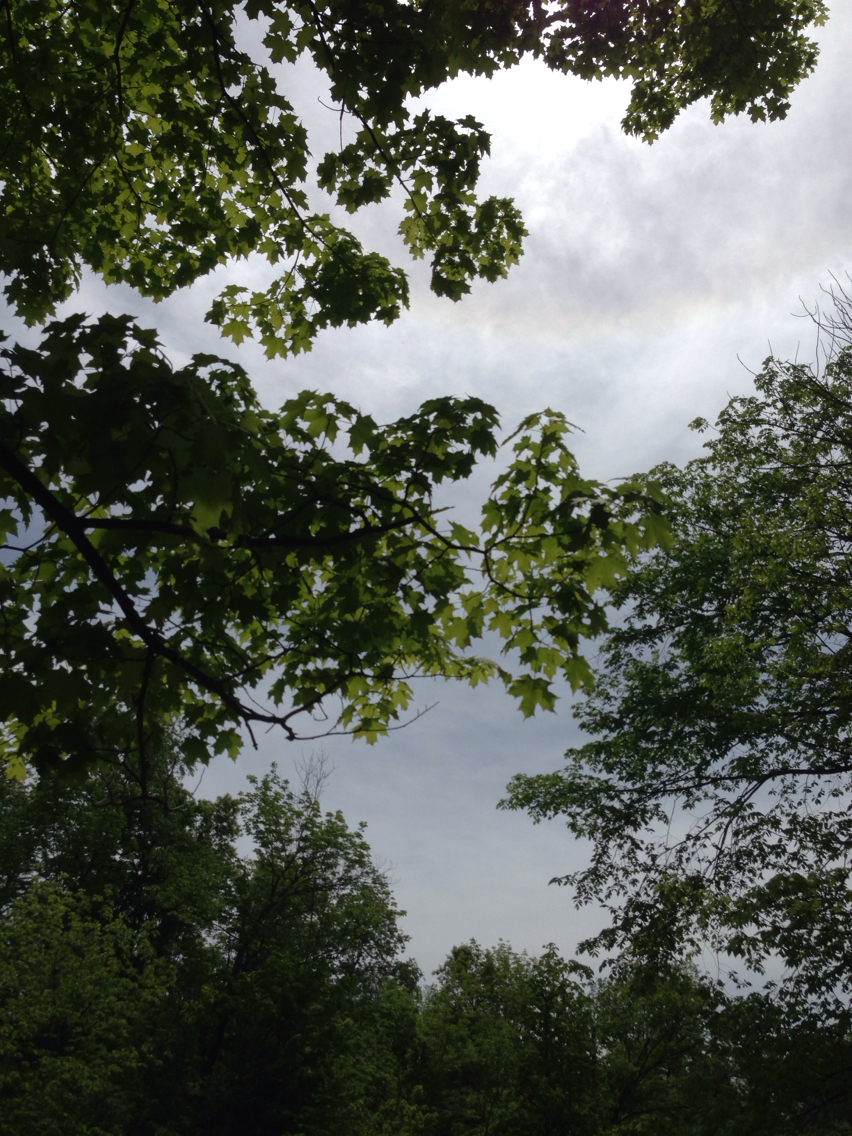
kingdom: Plantae
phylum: Tracheophyta
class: Magnoliopsida
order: Sapindales
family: Sapindaceae
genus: Acer
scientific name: Acer saccharum
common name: Sugar maple
